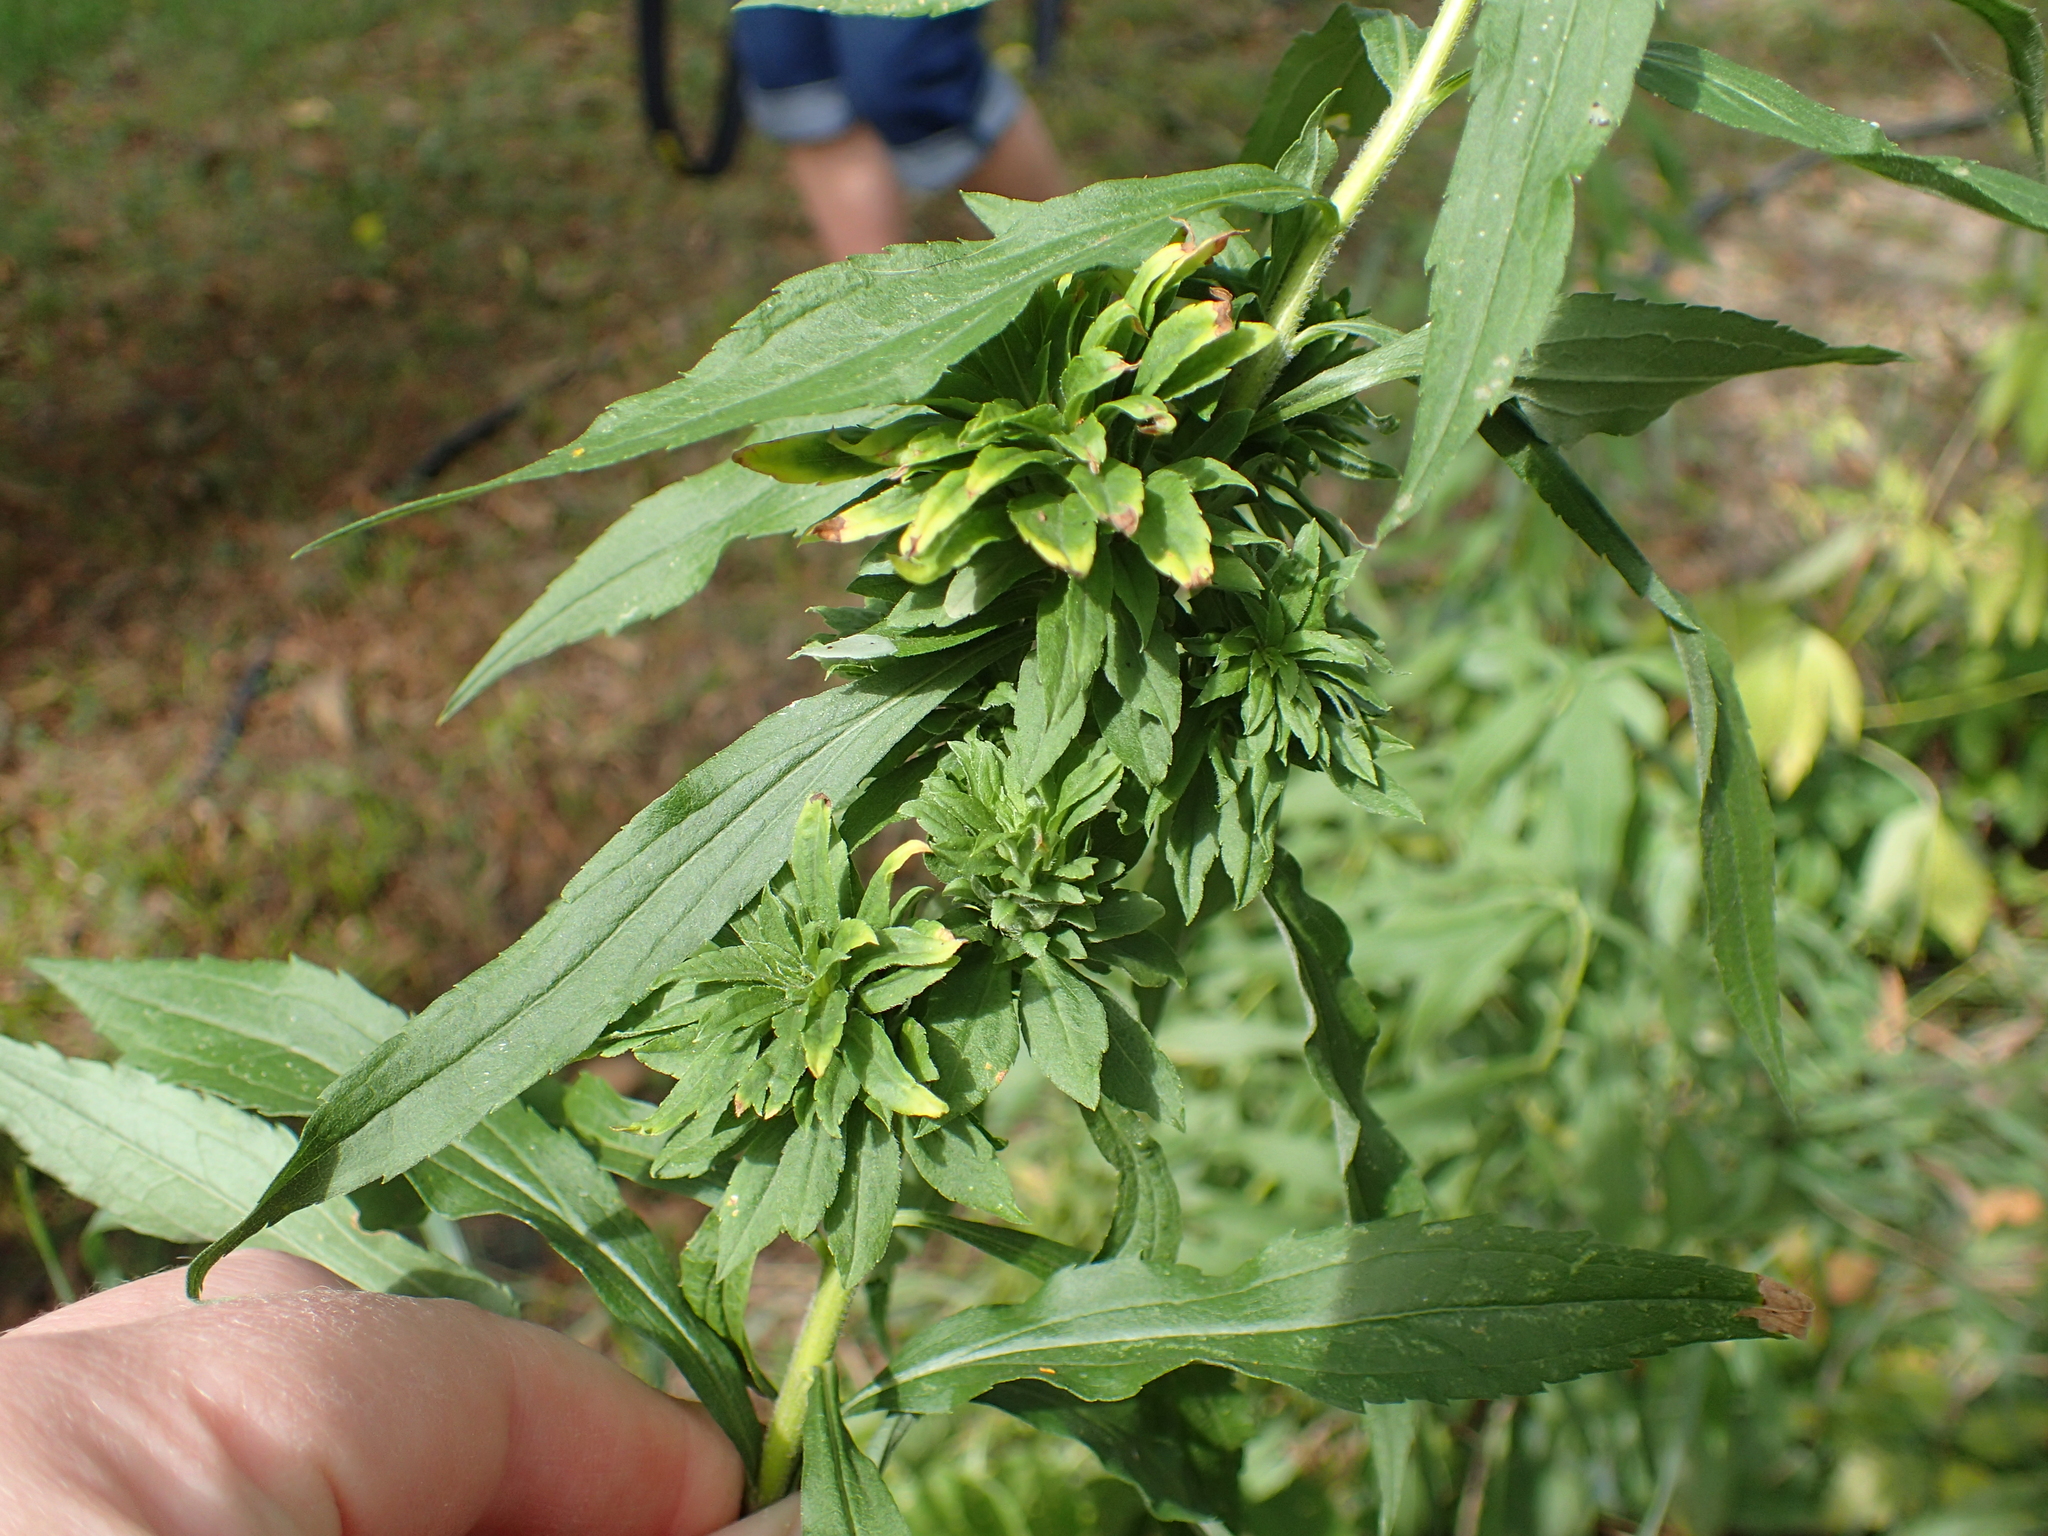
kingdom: Animalia
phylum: Arthropoda
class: Insecta
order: Diptera
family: Tephritidae
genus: Procecidochares
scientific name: Procecidochares atra
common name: Goldenrod brussels sprout gall fly
